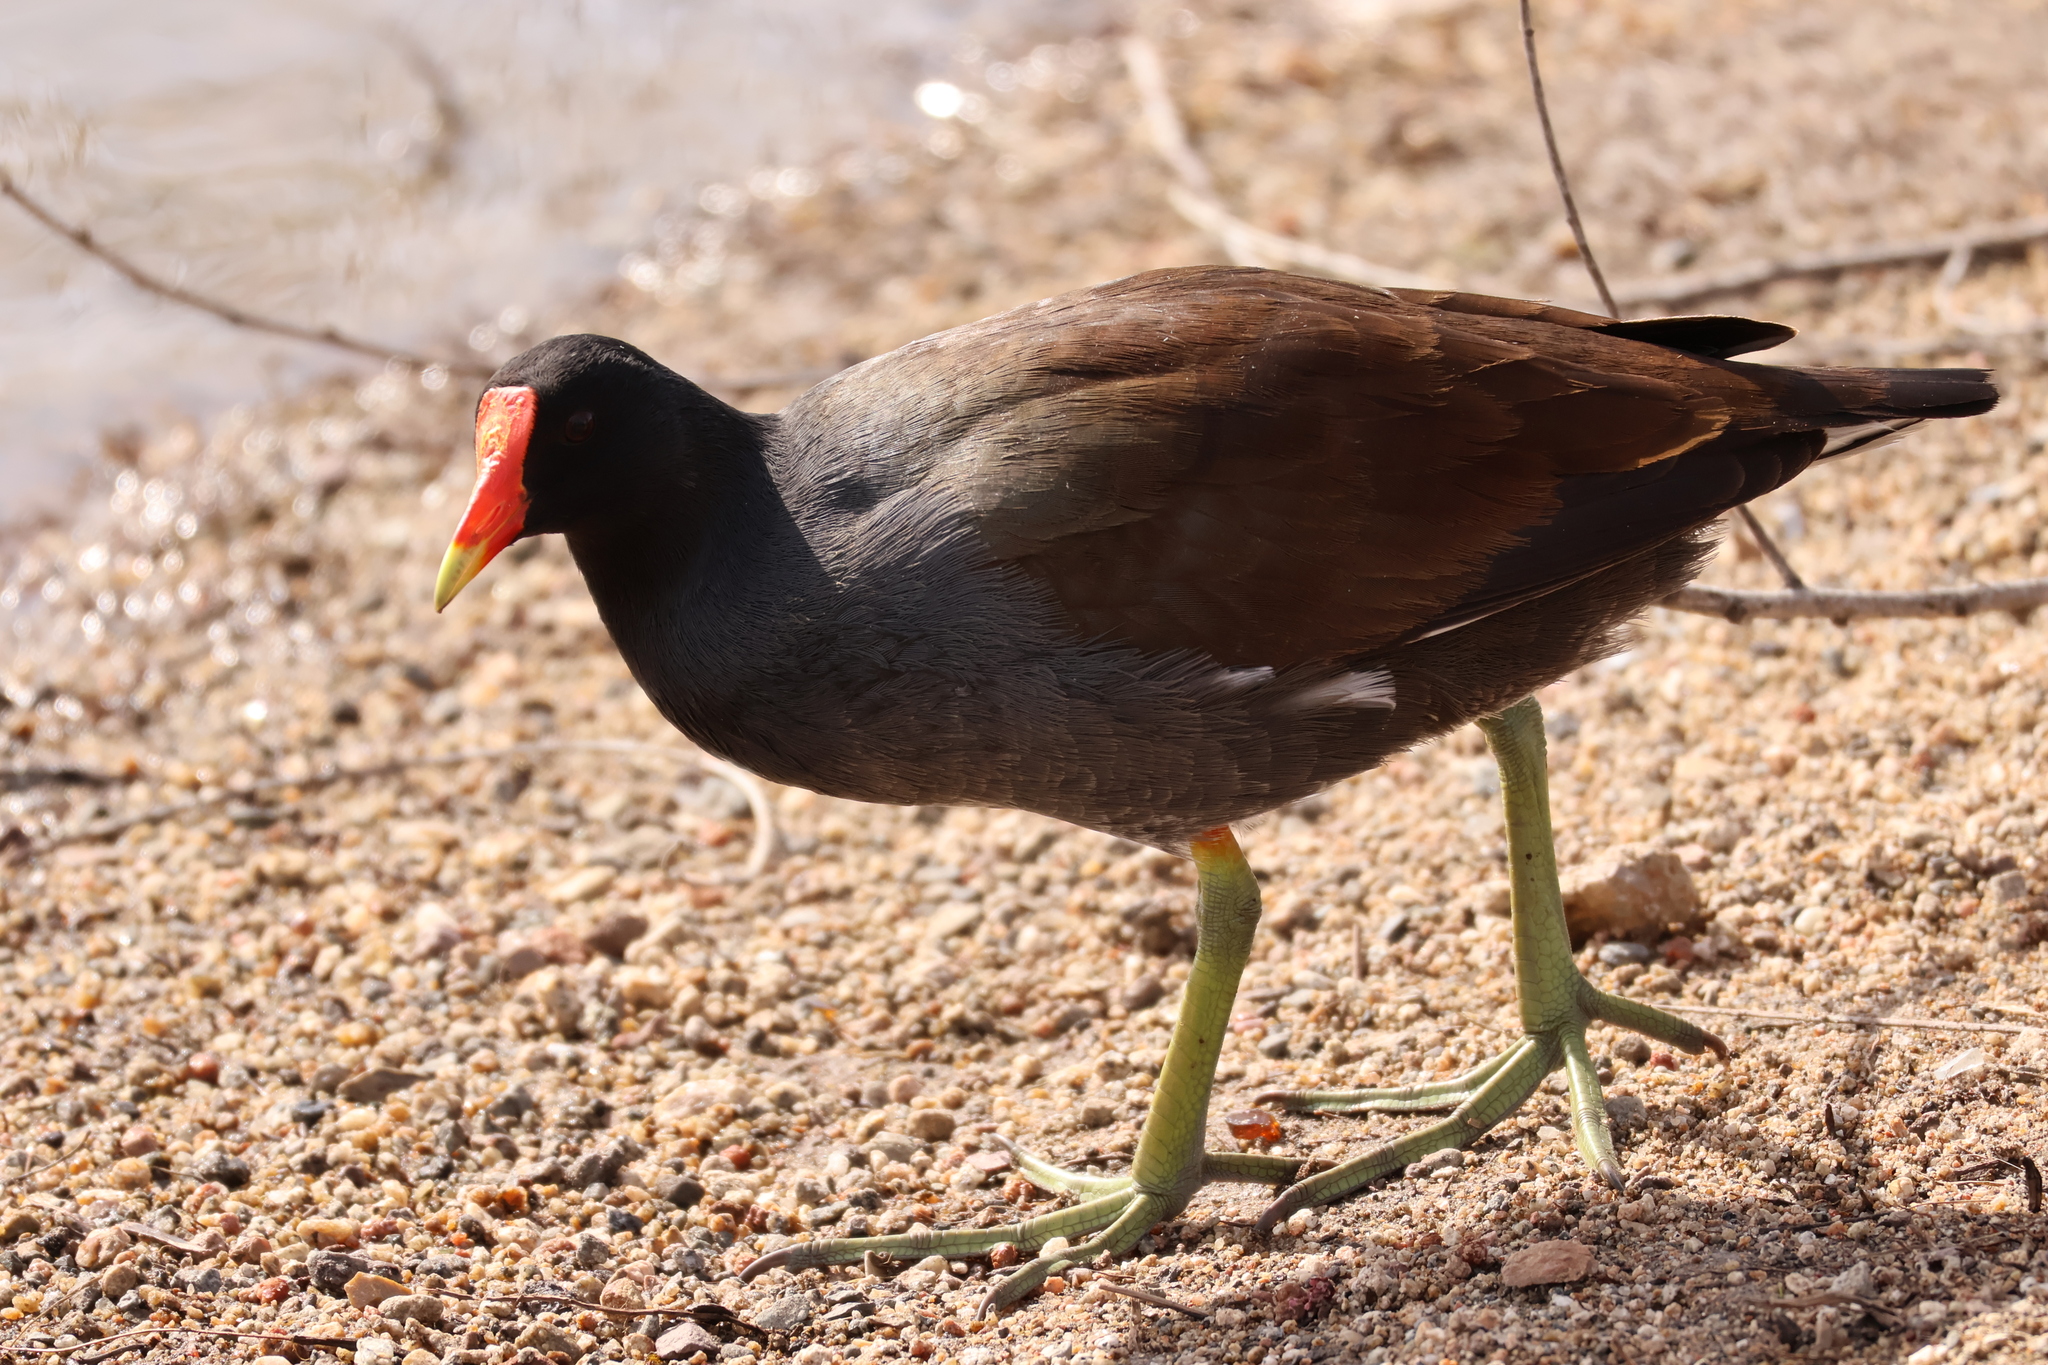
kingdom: Animalia
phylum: Chordata
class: Aves
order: Gruiformes
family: Rallidae
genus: Gallinula
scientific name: Gallinula chloropus
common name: Common moorhen
